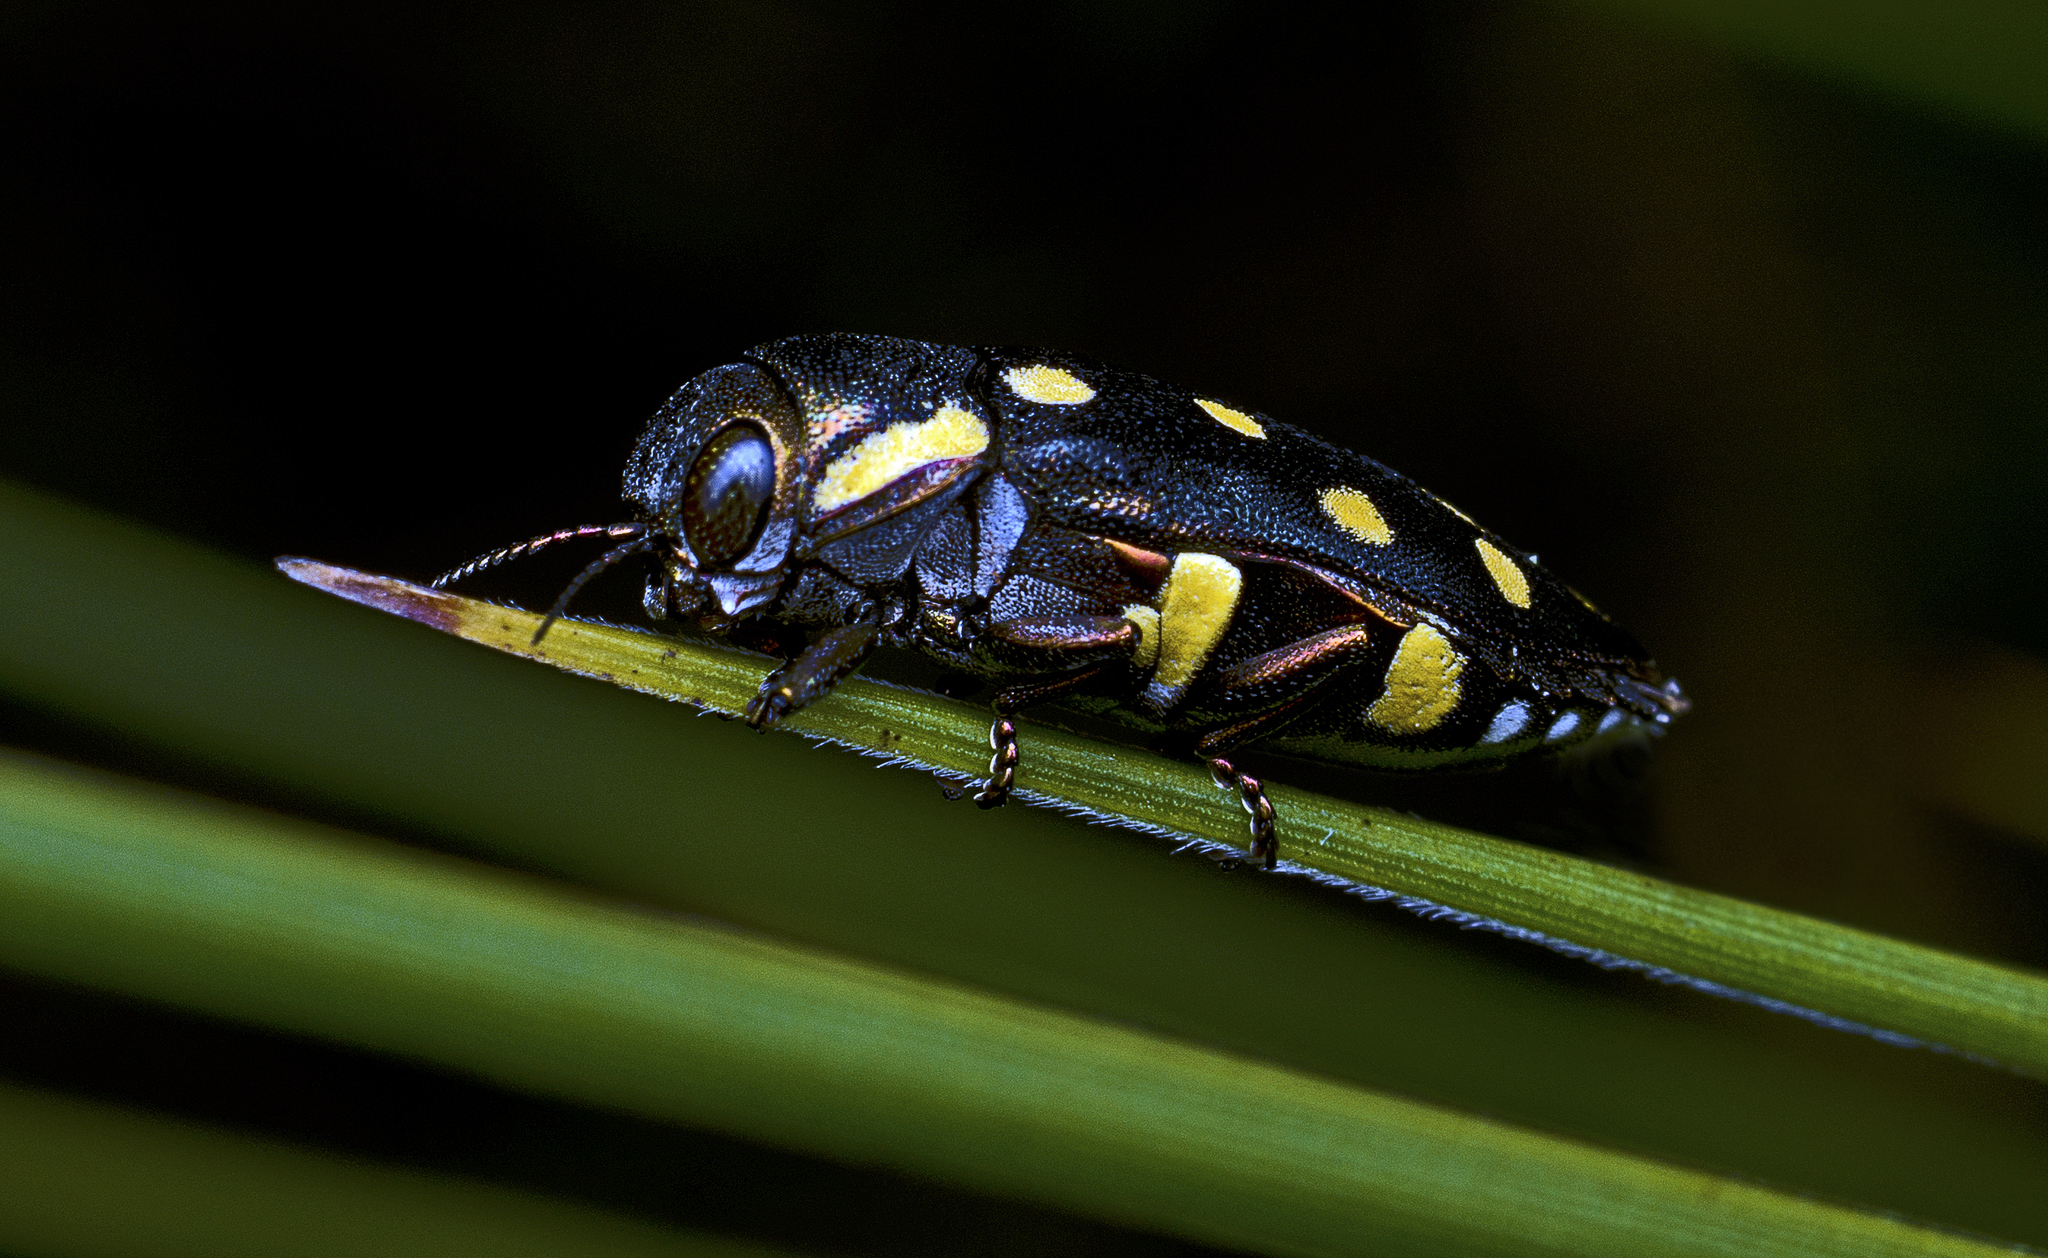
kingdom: Animalia
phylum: Arthropoda
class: Insecta
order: Coleoptera
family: Buprestidae
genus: Diphucrania
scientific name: Diphucrania duodecimmaculata
